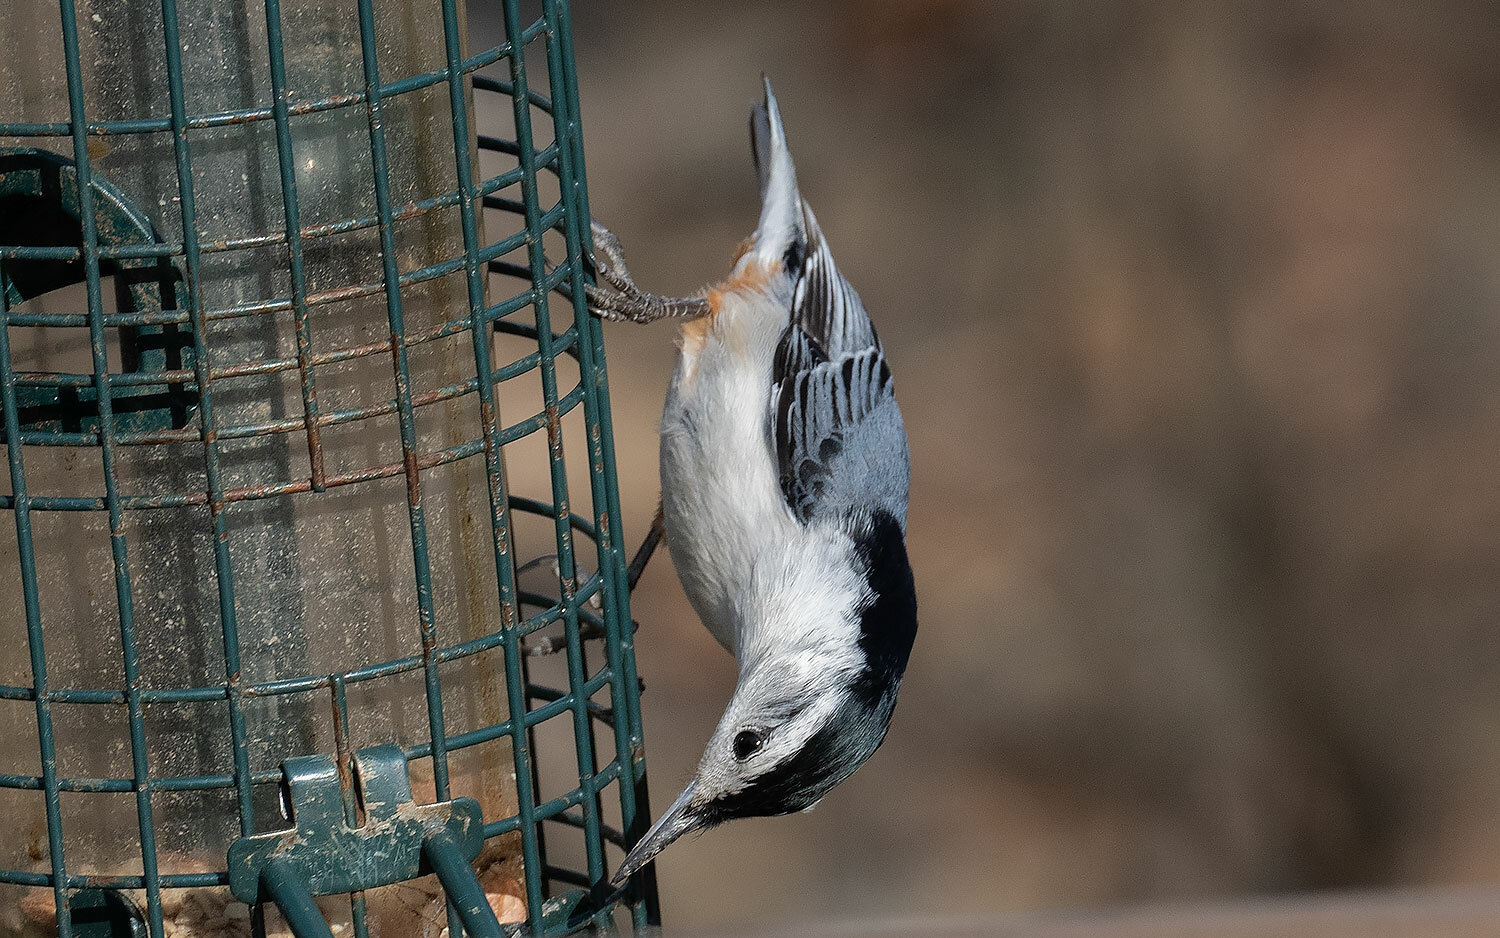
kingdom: Animalia
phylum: Chordata
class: Aves
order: Passeriformes
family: Sittidae
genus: Sitta
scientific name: Sitta carolinensis
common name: White-breasted nuthatch
